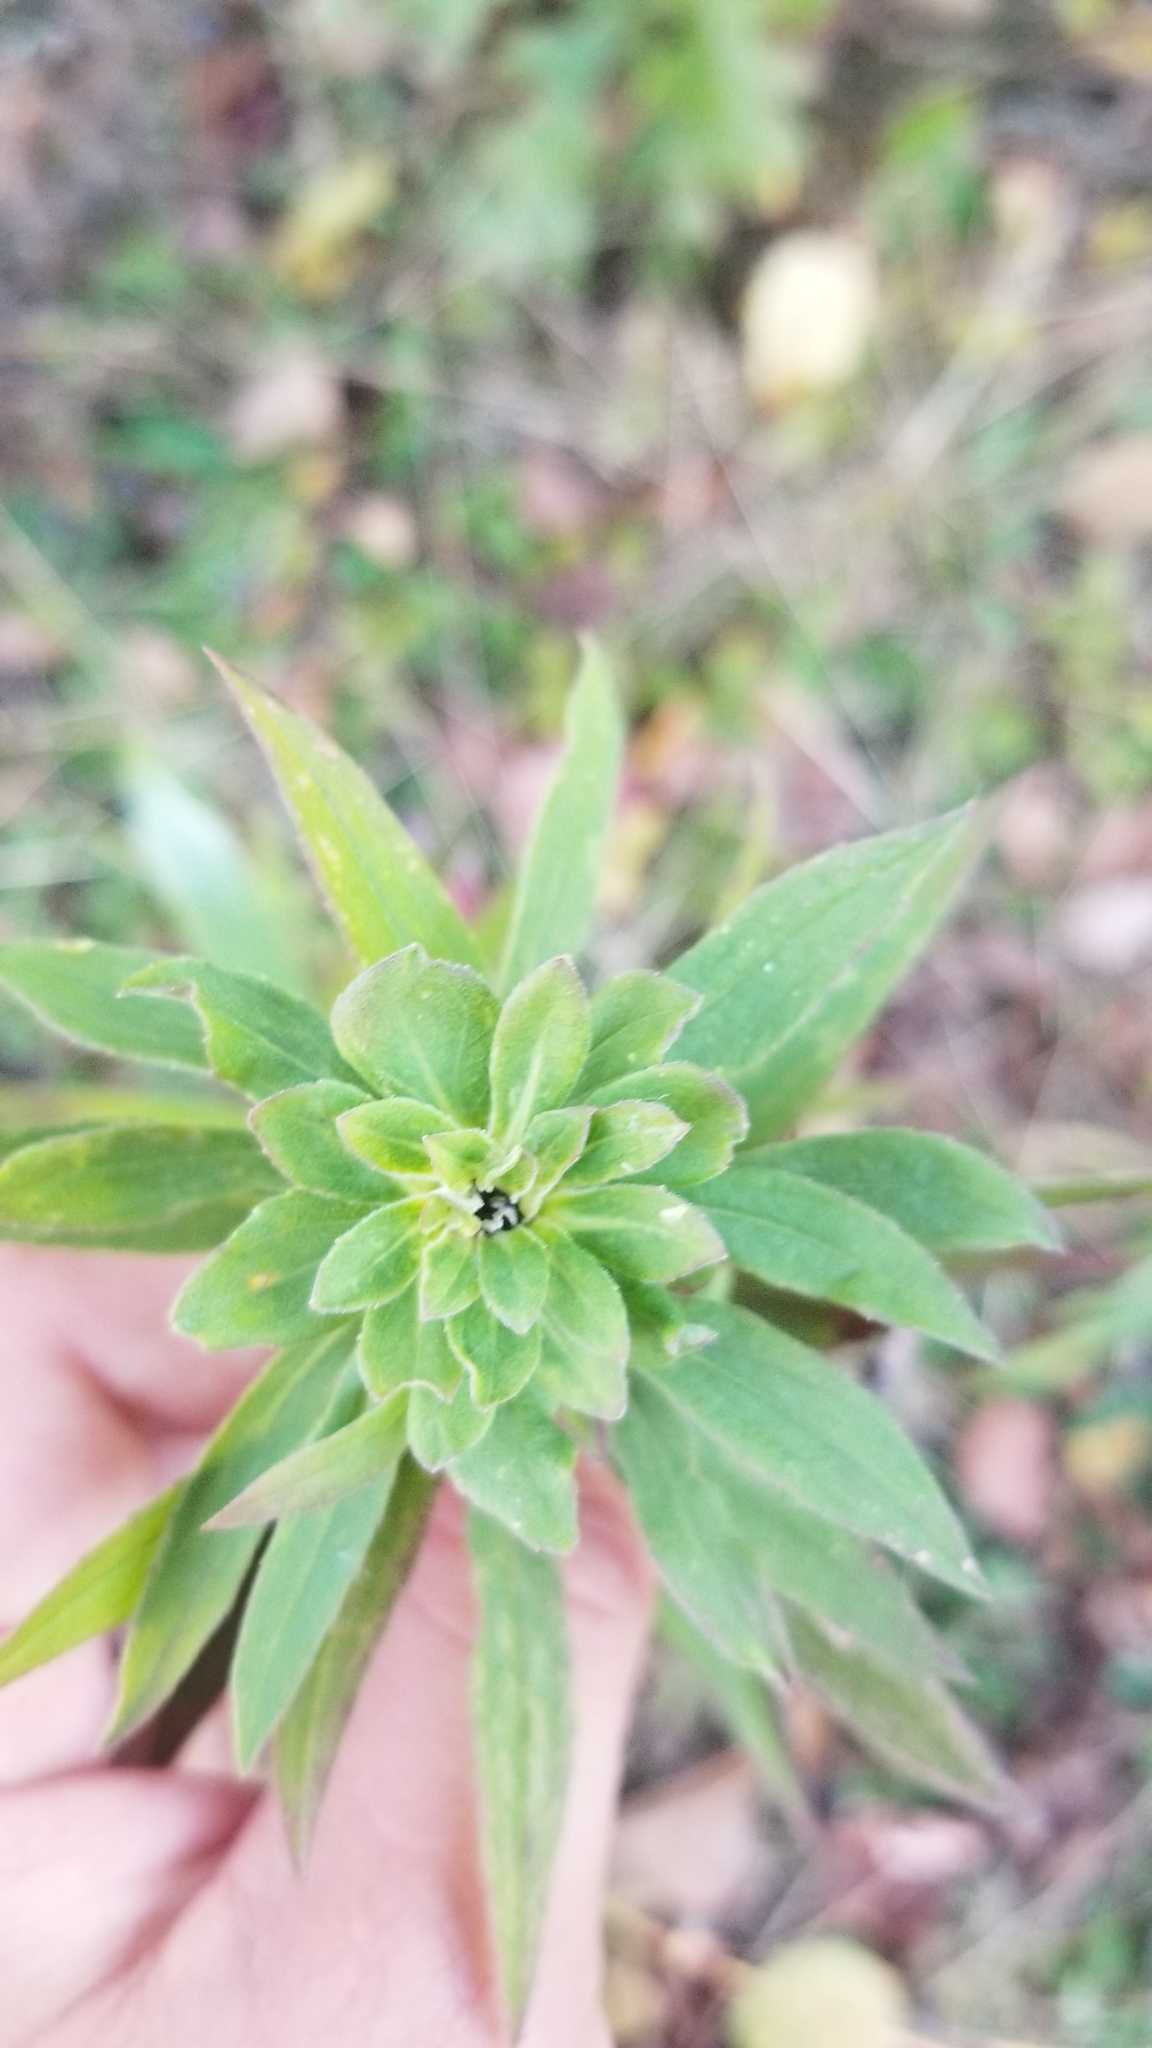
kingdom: Animalia
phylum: Arthropoda
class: Insecta
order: Diptera
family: Tephritidae
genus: Procecidochares
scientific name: Procecidochares atra
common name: Goldenrod brussels sprout gall fly
